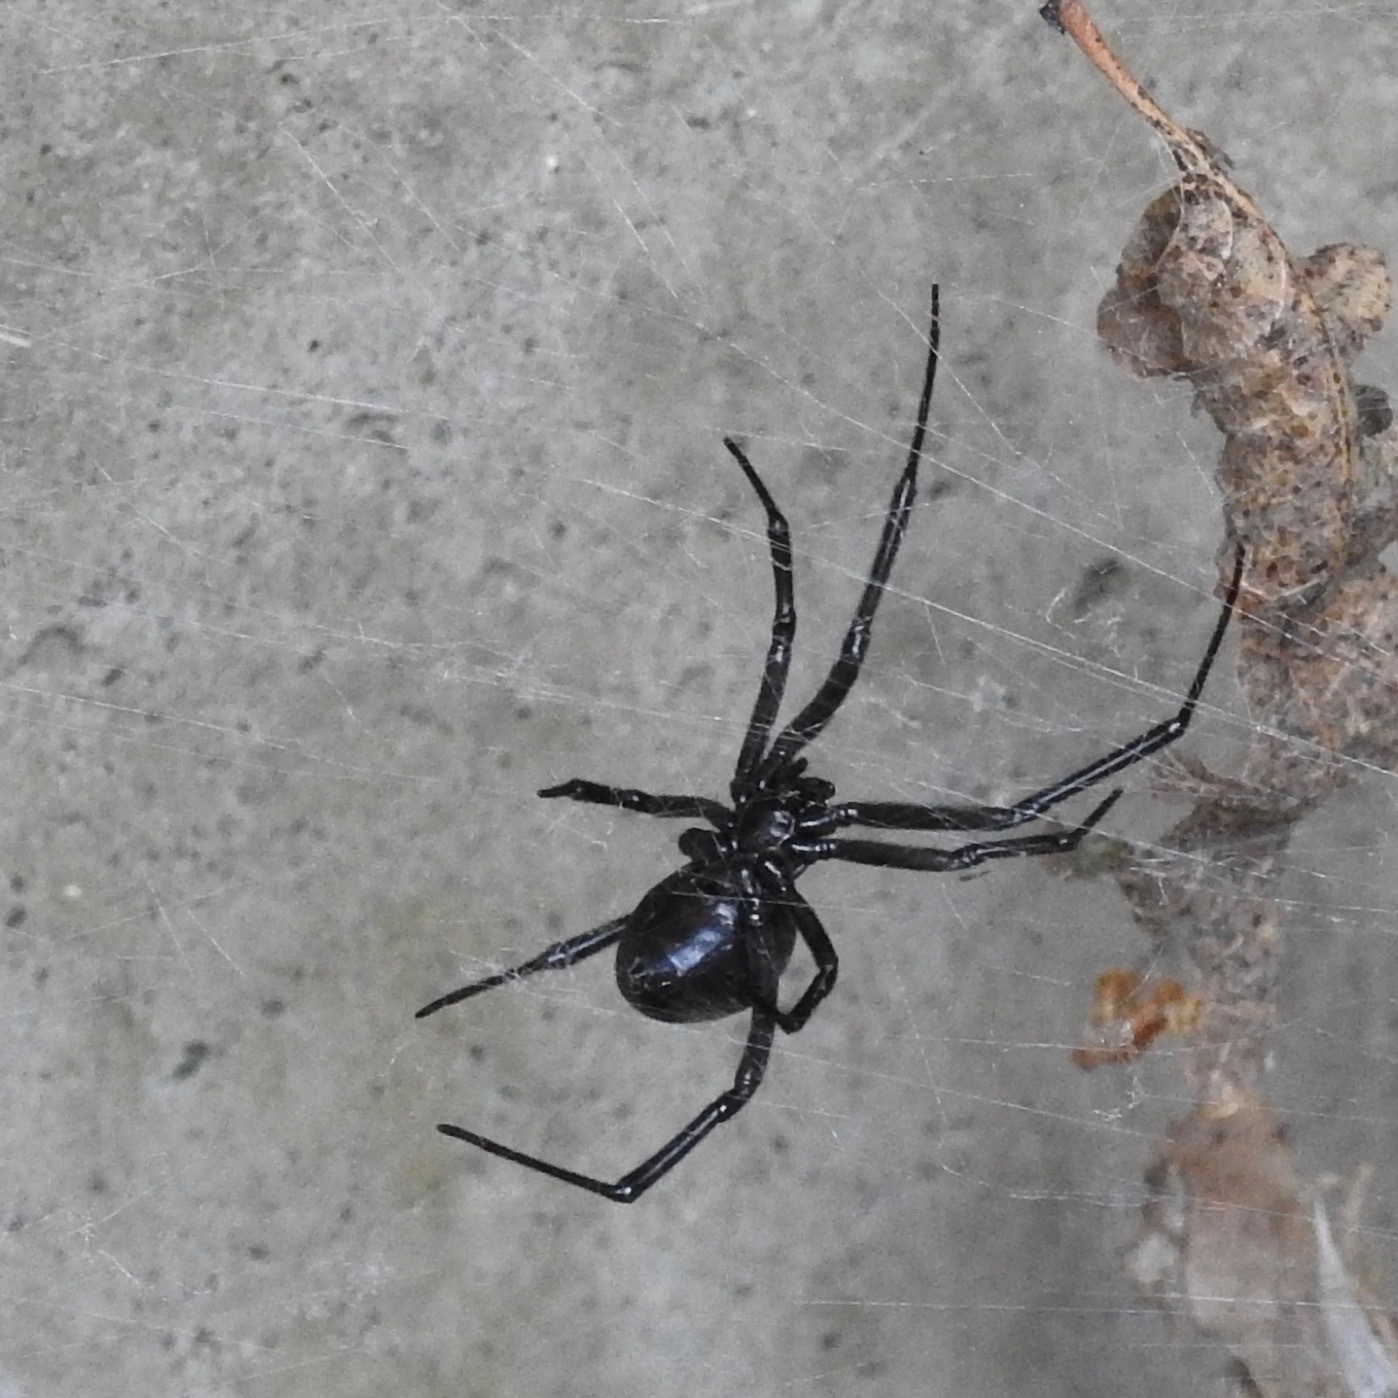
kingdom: Animalia
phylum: Arthropoda
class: Arachnida
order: Araneae
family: Theridiidae
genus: Latrodectus
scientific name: Latrodectus hesperus
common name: Western black widow
